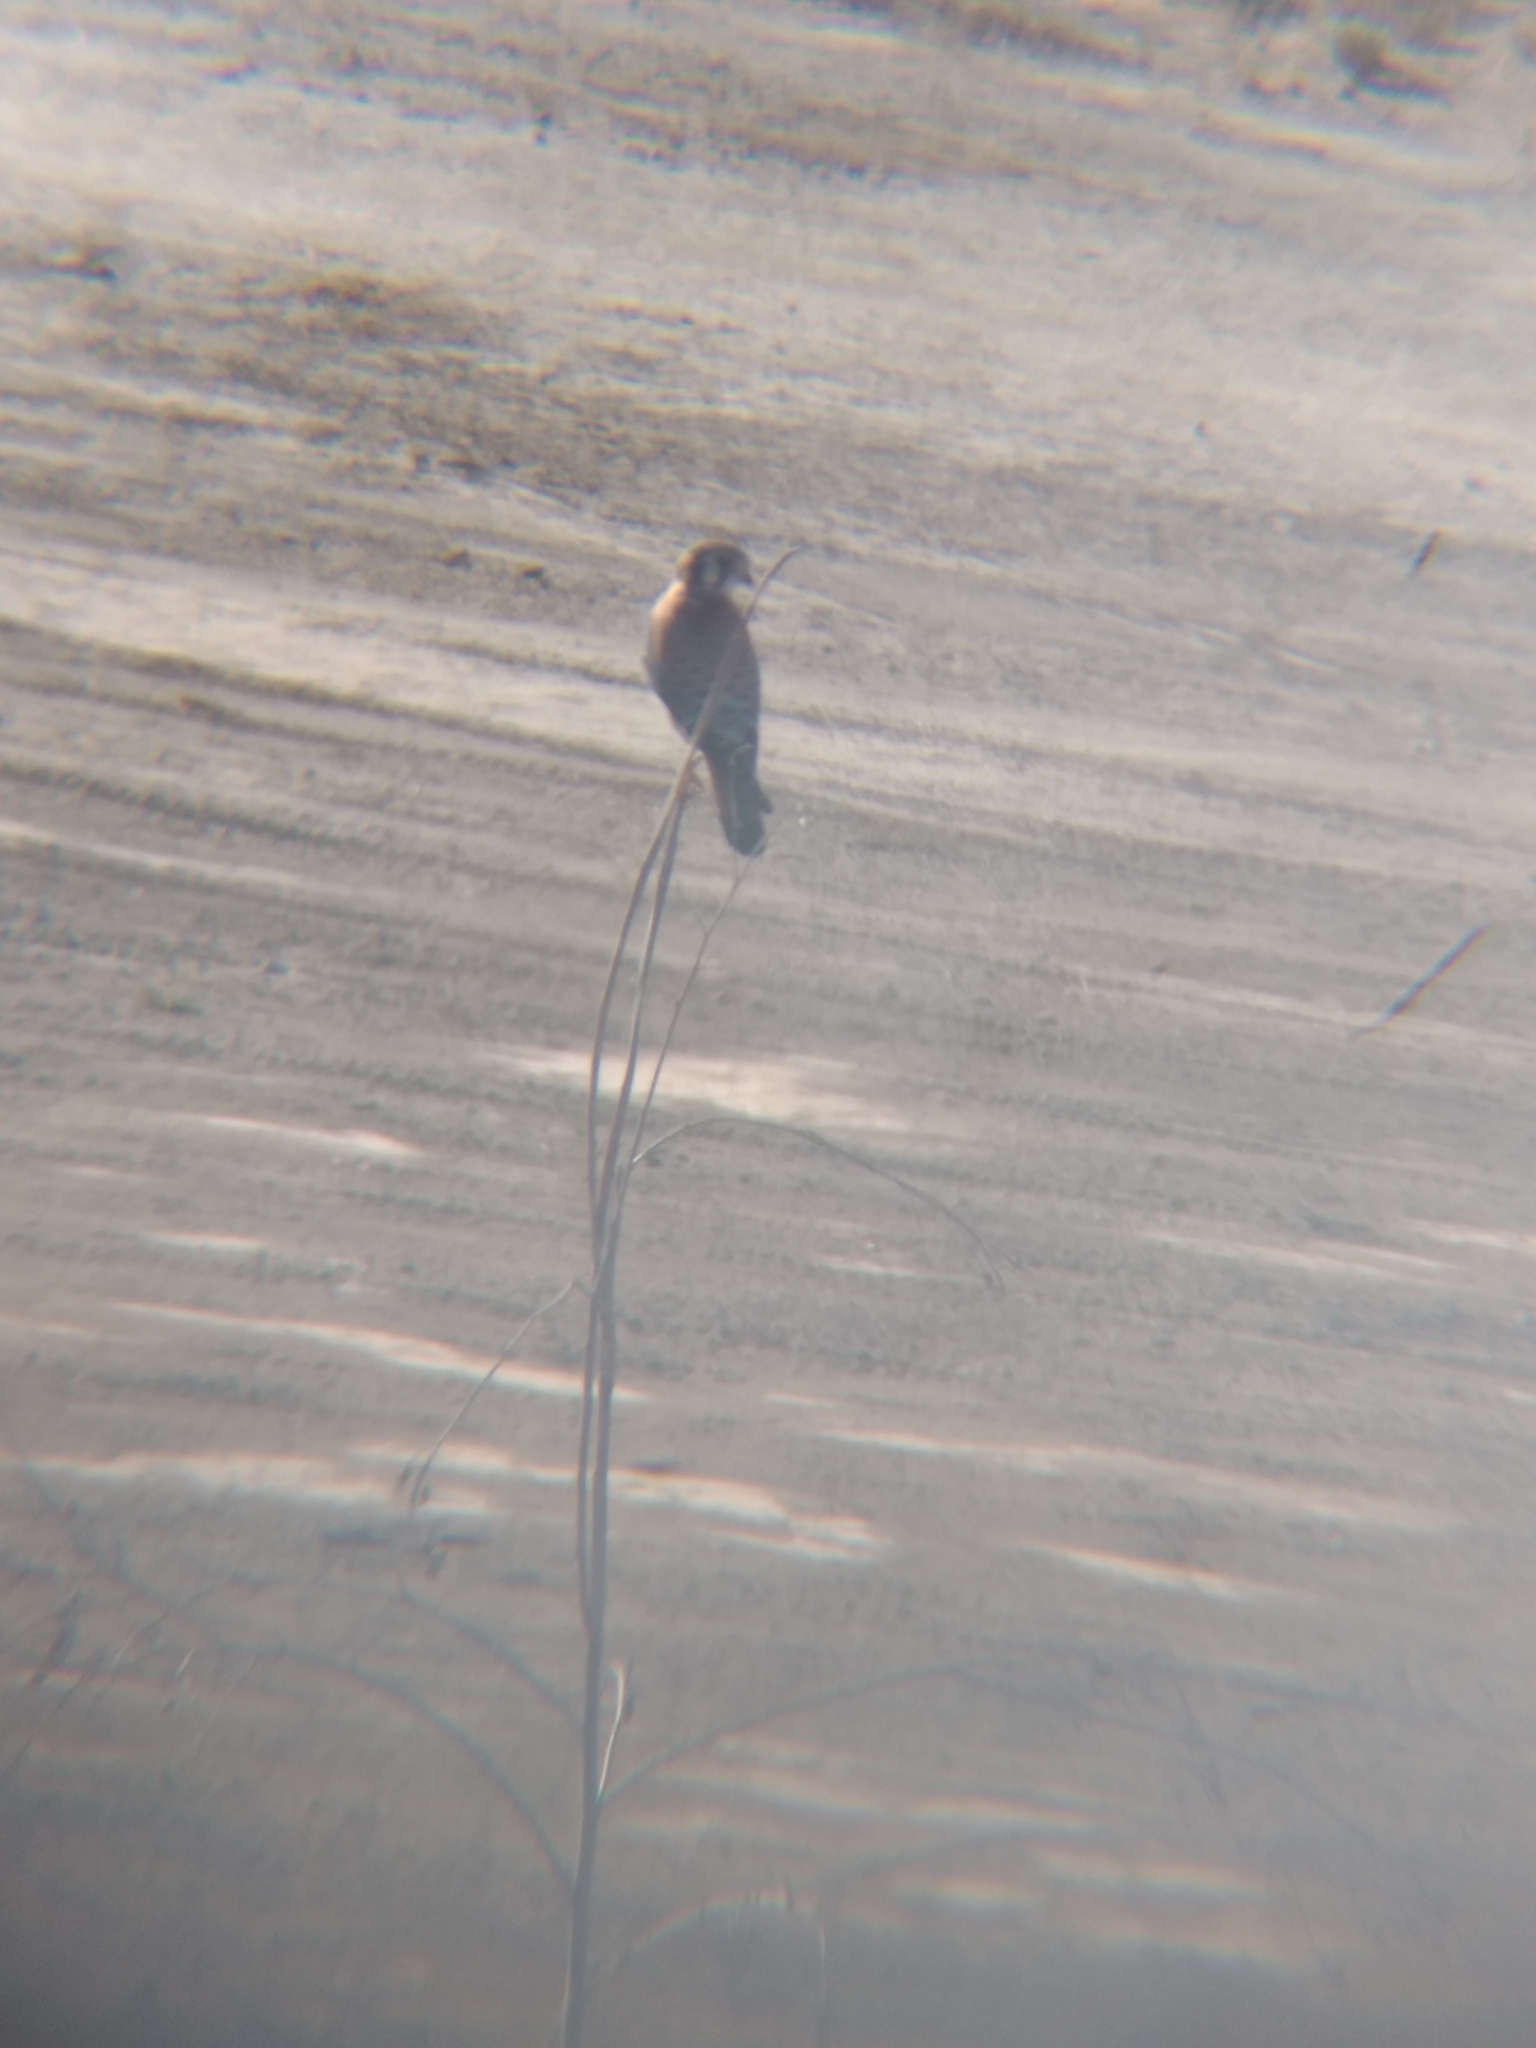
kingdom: Animalia
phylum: Chordata
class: Aves
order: Falconiformes
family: Falconidae
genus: Falco
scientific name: Falco sparverius
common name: American kestrel
